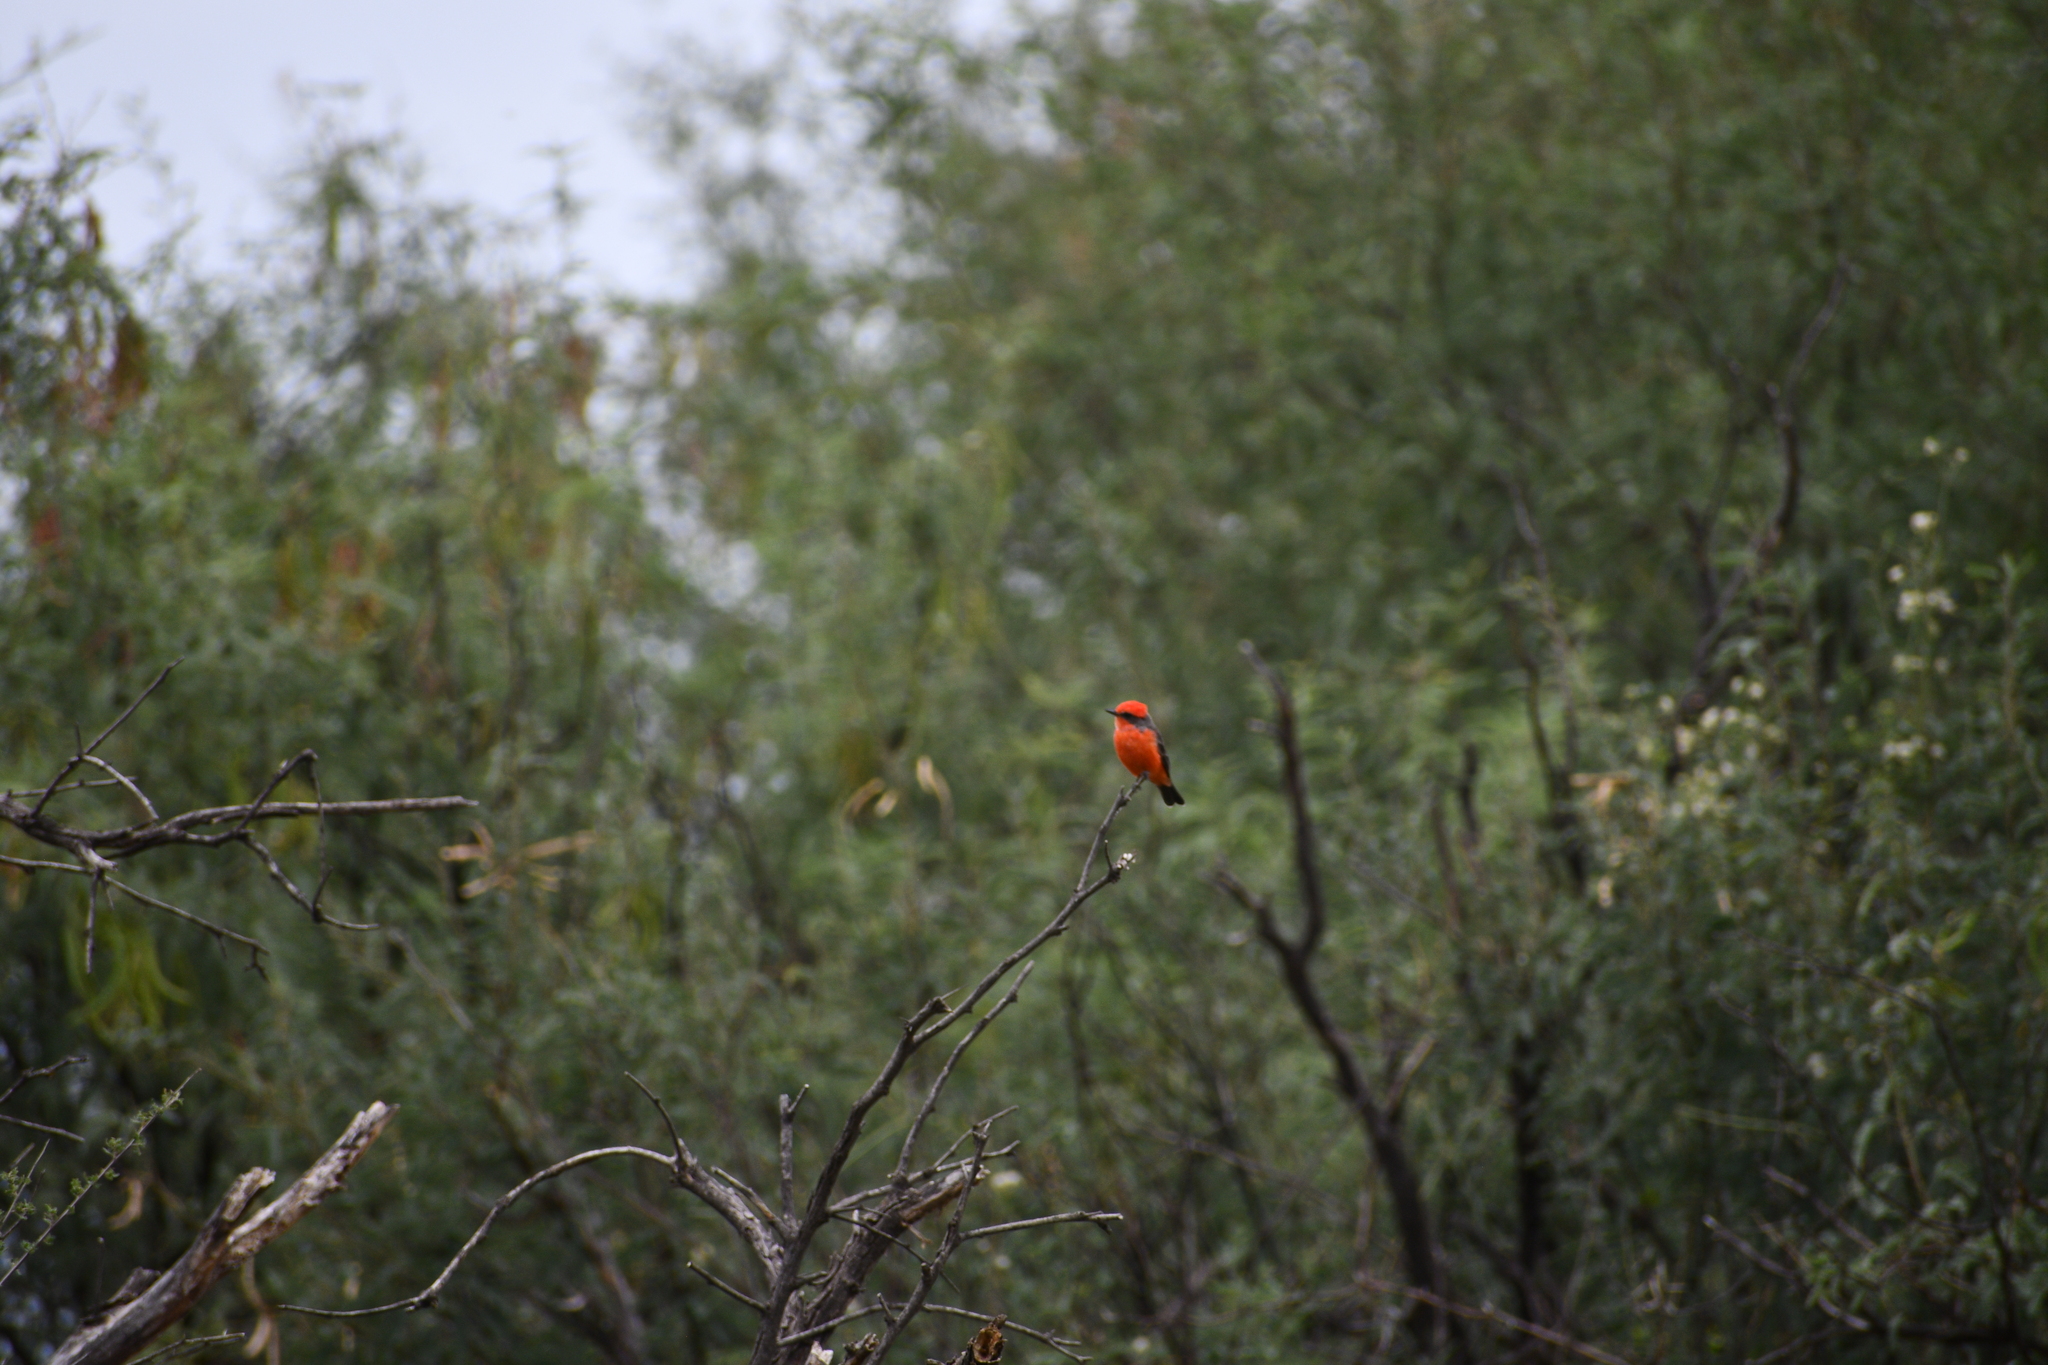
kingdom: Animalia
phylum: Chordata
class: Aves
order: Passeriformes
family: Tyrannidae
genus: Pyrocephalus
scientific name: Pyrocephalus rubinus
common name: Vermilion flycatcher
